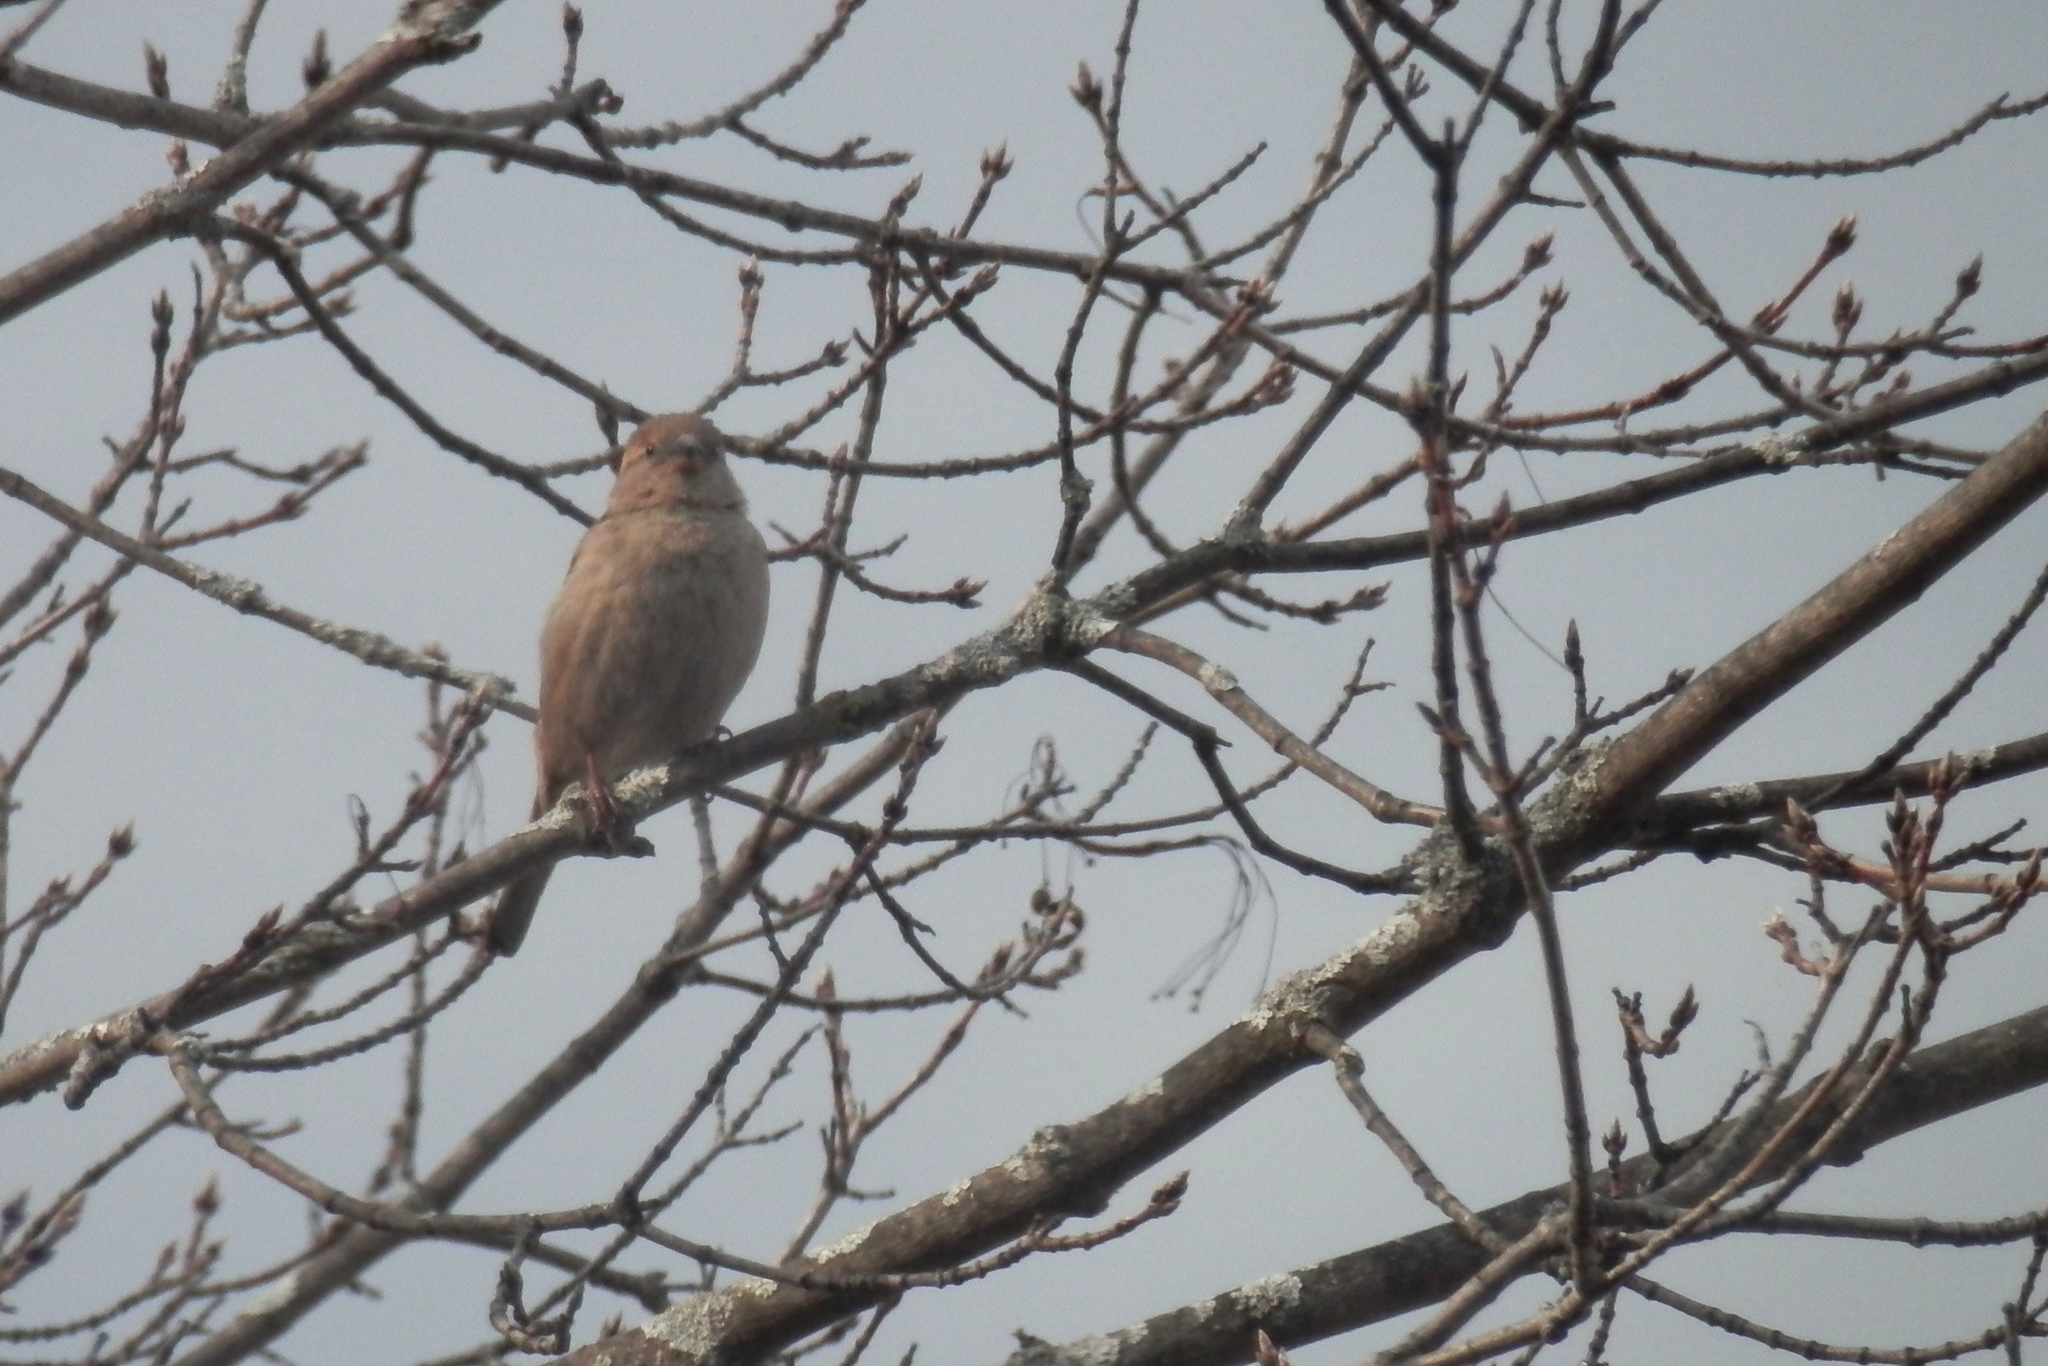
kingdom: Animalia
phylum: Chordata
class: Aves
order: Passeriformes
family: Passeridae
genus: Passer
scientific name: Passer domesticus
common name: House sparrow
